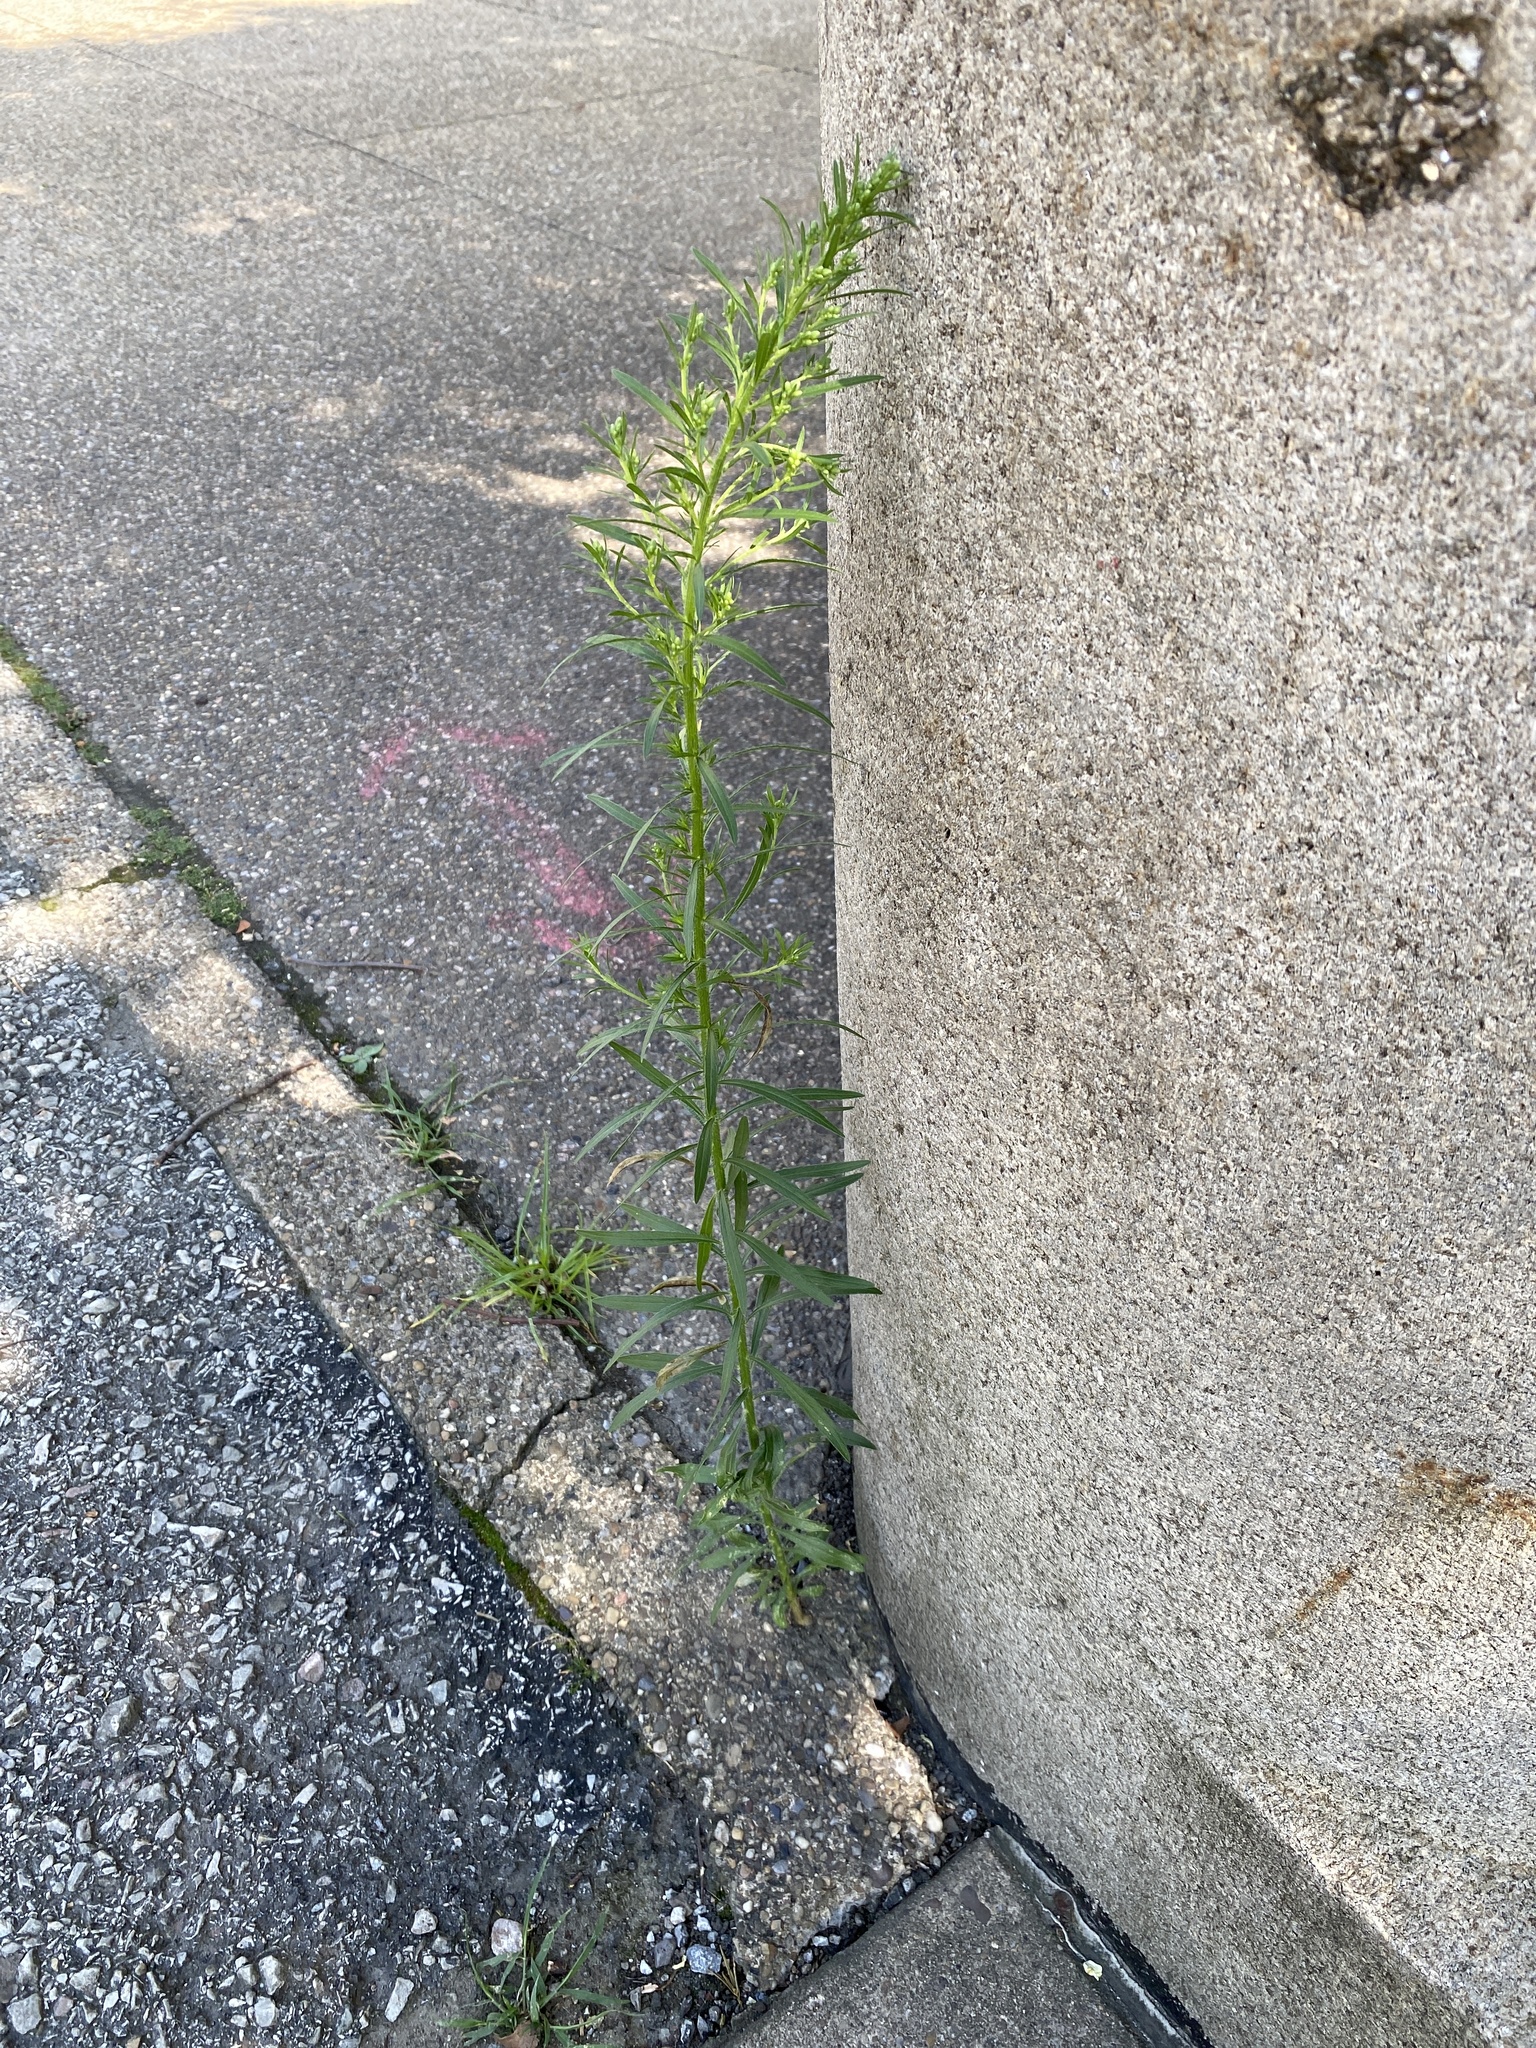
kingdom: Plantae
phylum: Tracheophyta
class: Magnoliopsida
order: Asterales
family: Asteraceae
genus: Erigeron
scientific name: Erigeron canadensis
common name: Canadian fleabane
